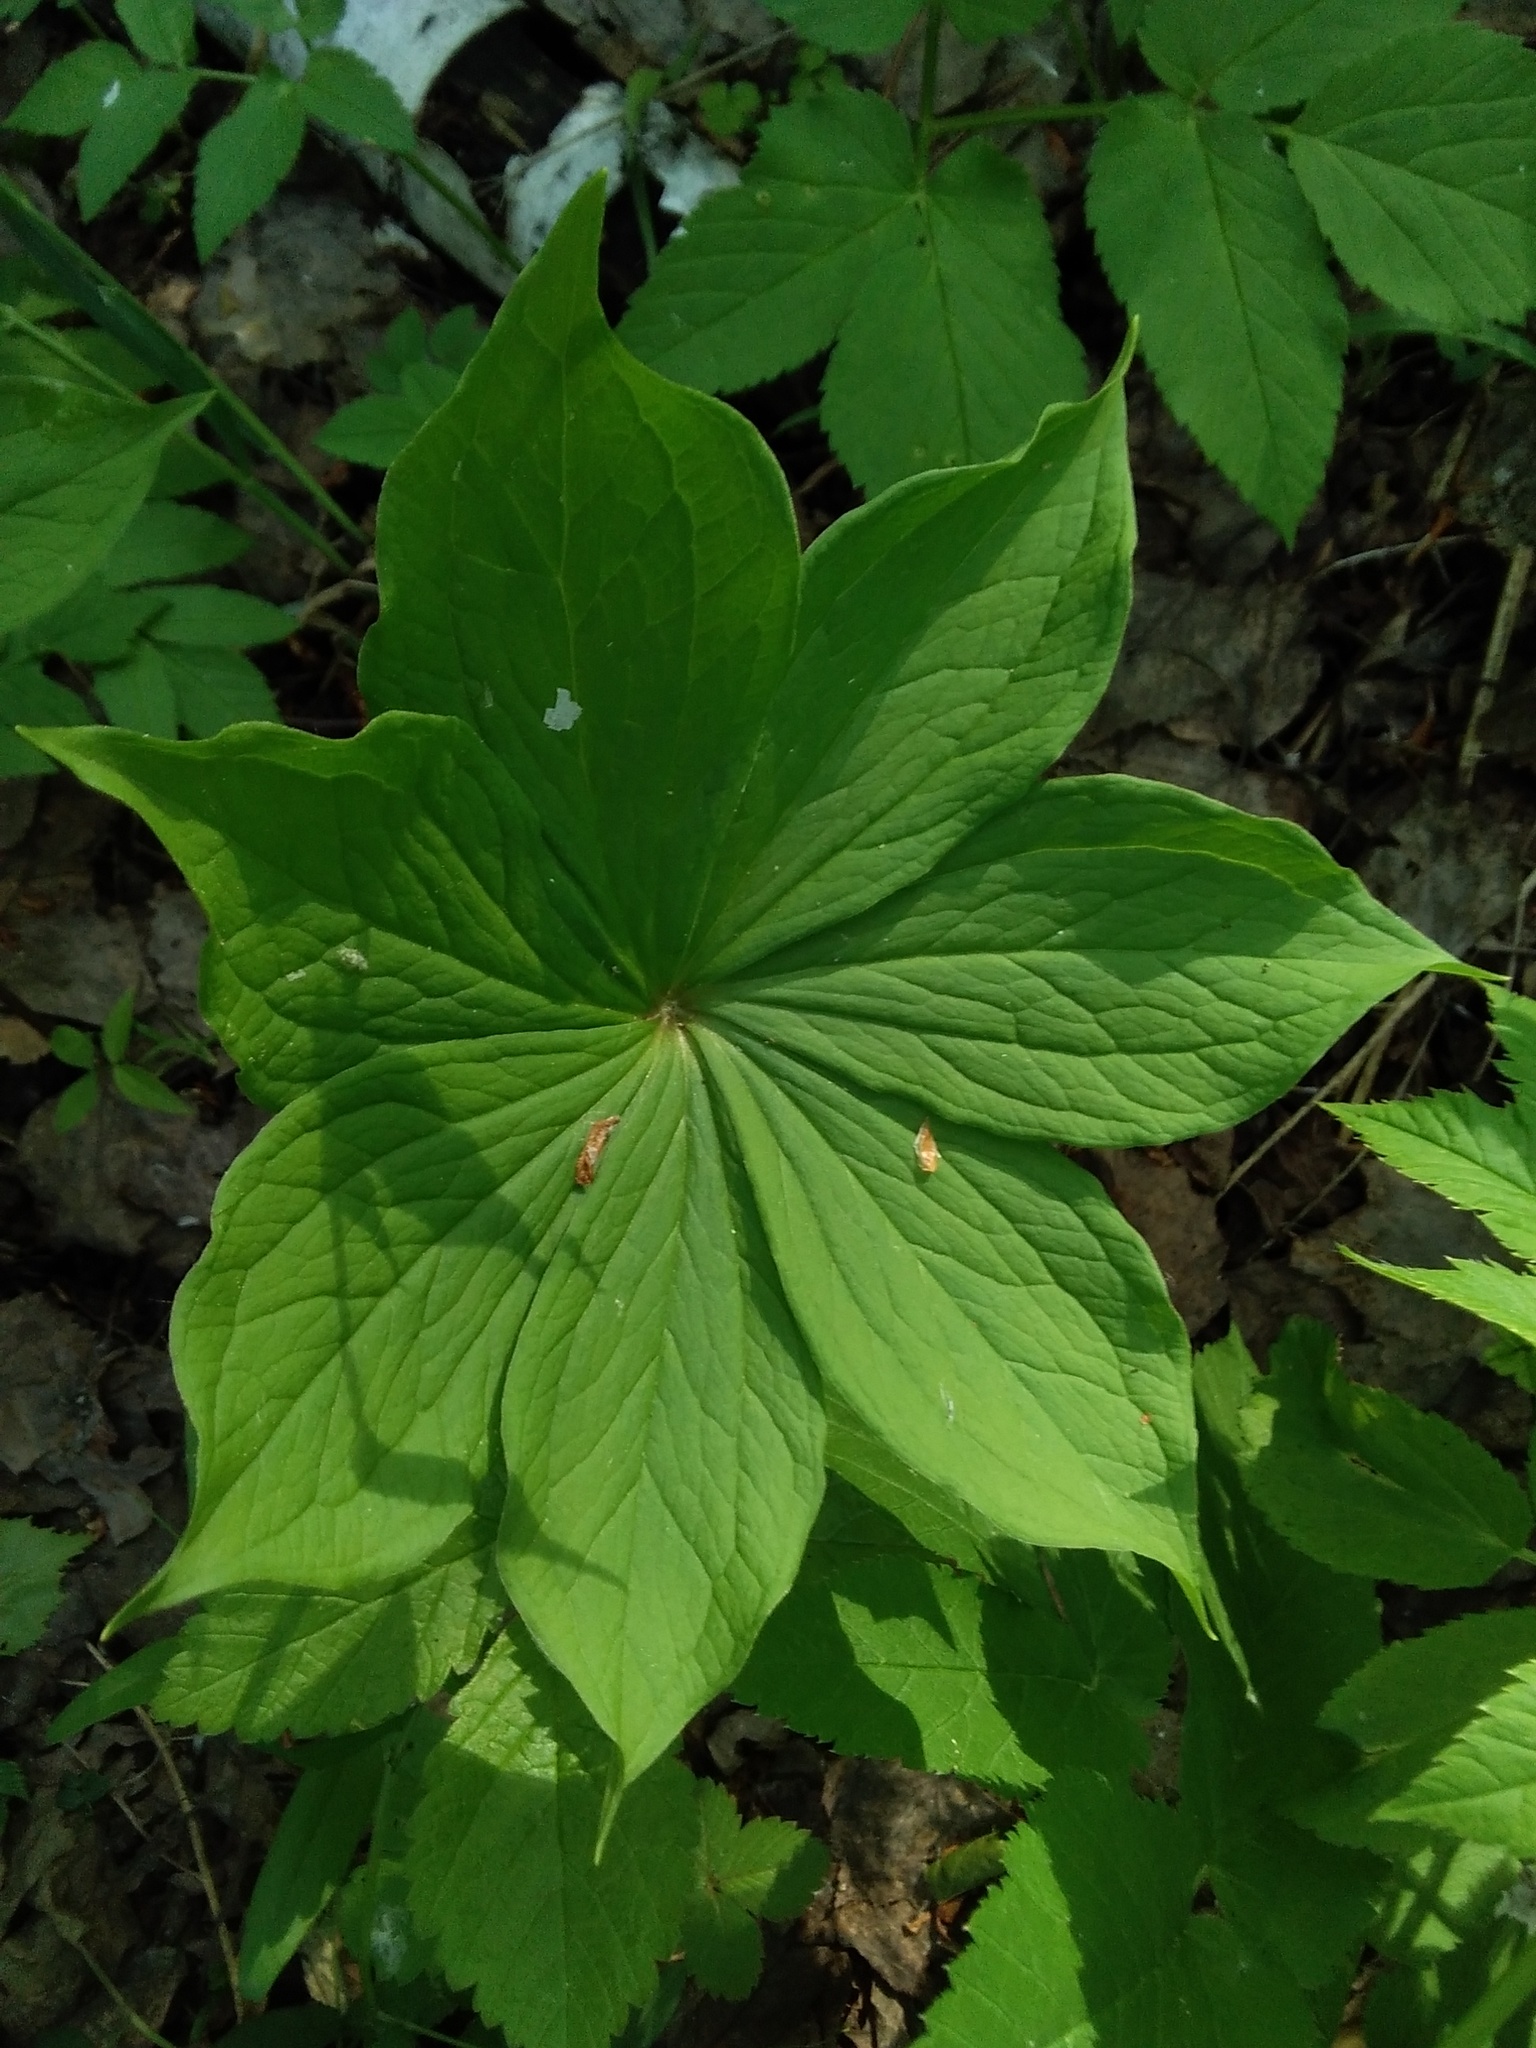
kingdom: Plantae
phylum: Tracheophyta
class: Liliopsida
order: Liliales
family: Melanthiaceae
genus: Paris
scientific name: Paris verticillata
